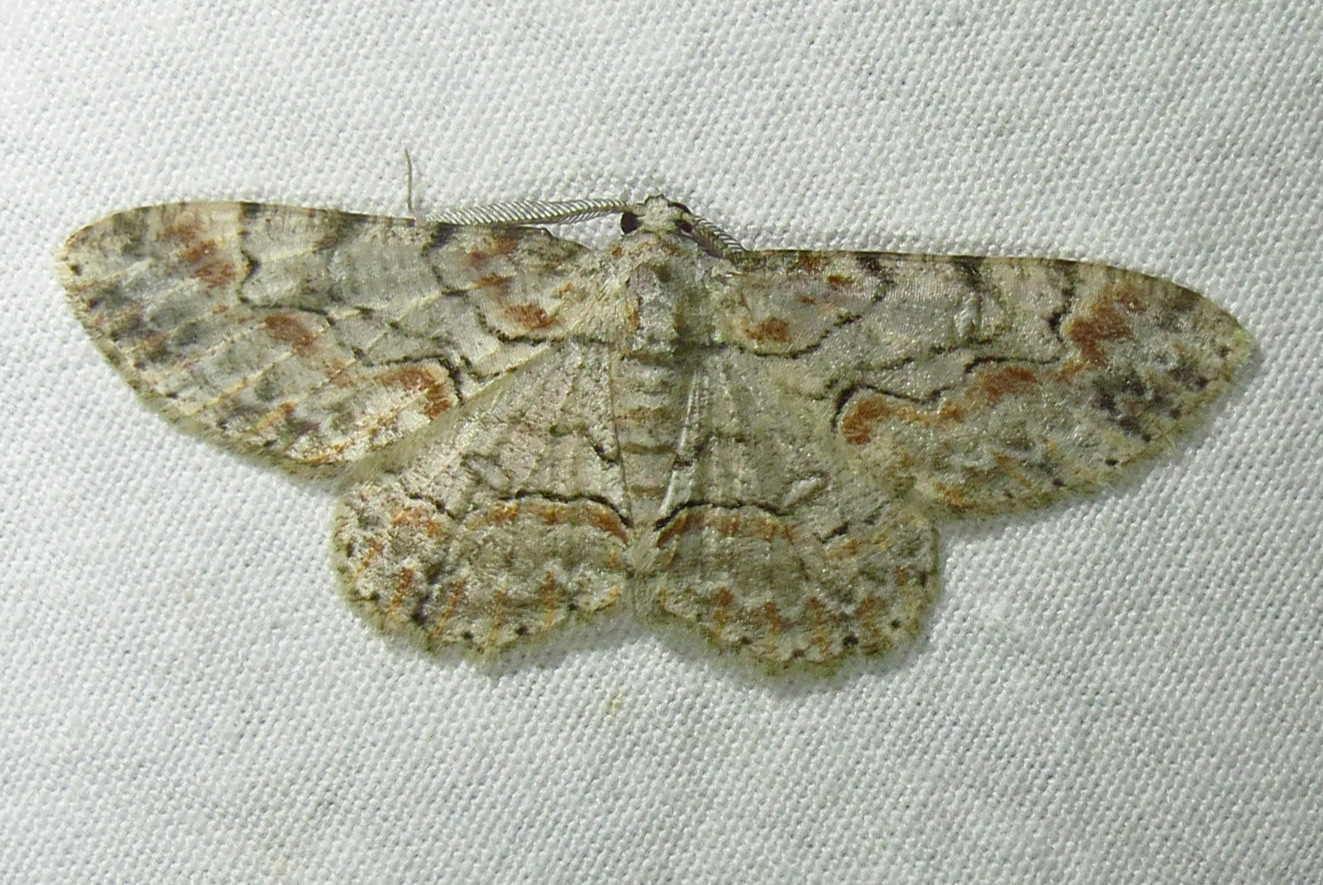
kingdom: Animalia
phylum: Arthropoda
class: Insecta
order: Lepidoptera
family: Geometridae
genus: Iridopsis
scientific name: Iridopsis defectaria
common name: Brown-shaded gray
